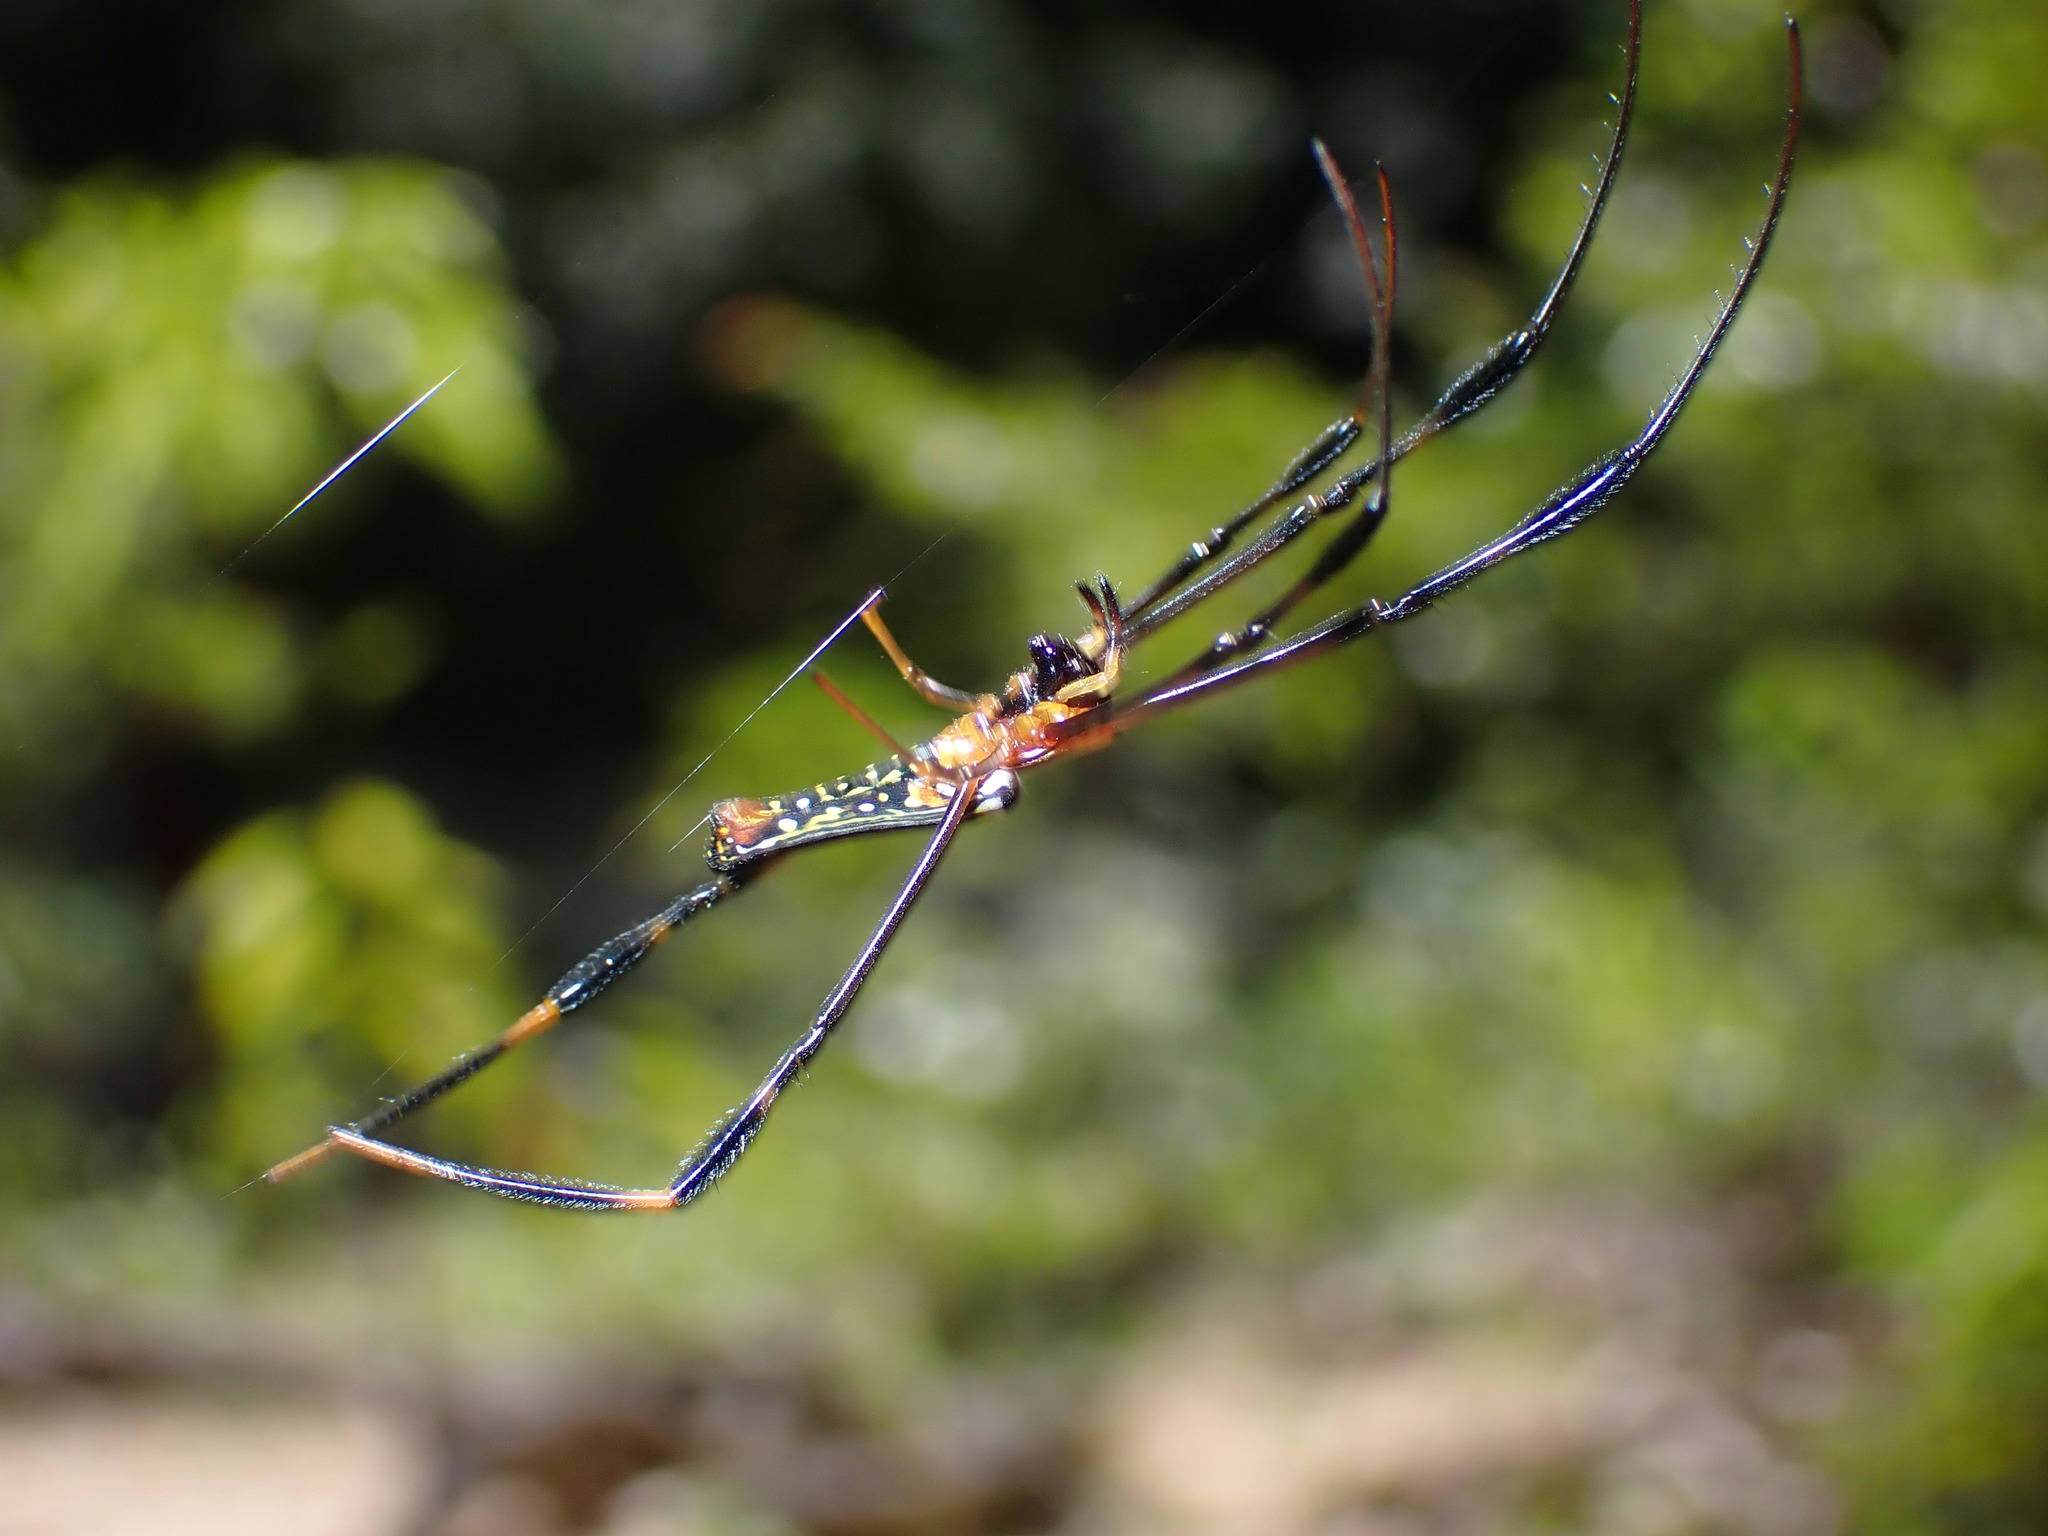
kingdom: Animalia
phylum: Arthropoda
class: Arachnida
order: Araneae
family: Araneidae
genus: Nephila
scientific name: Nephila pilipes
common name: Giant golden orb weaver
